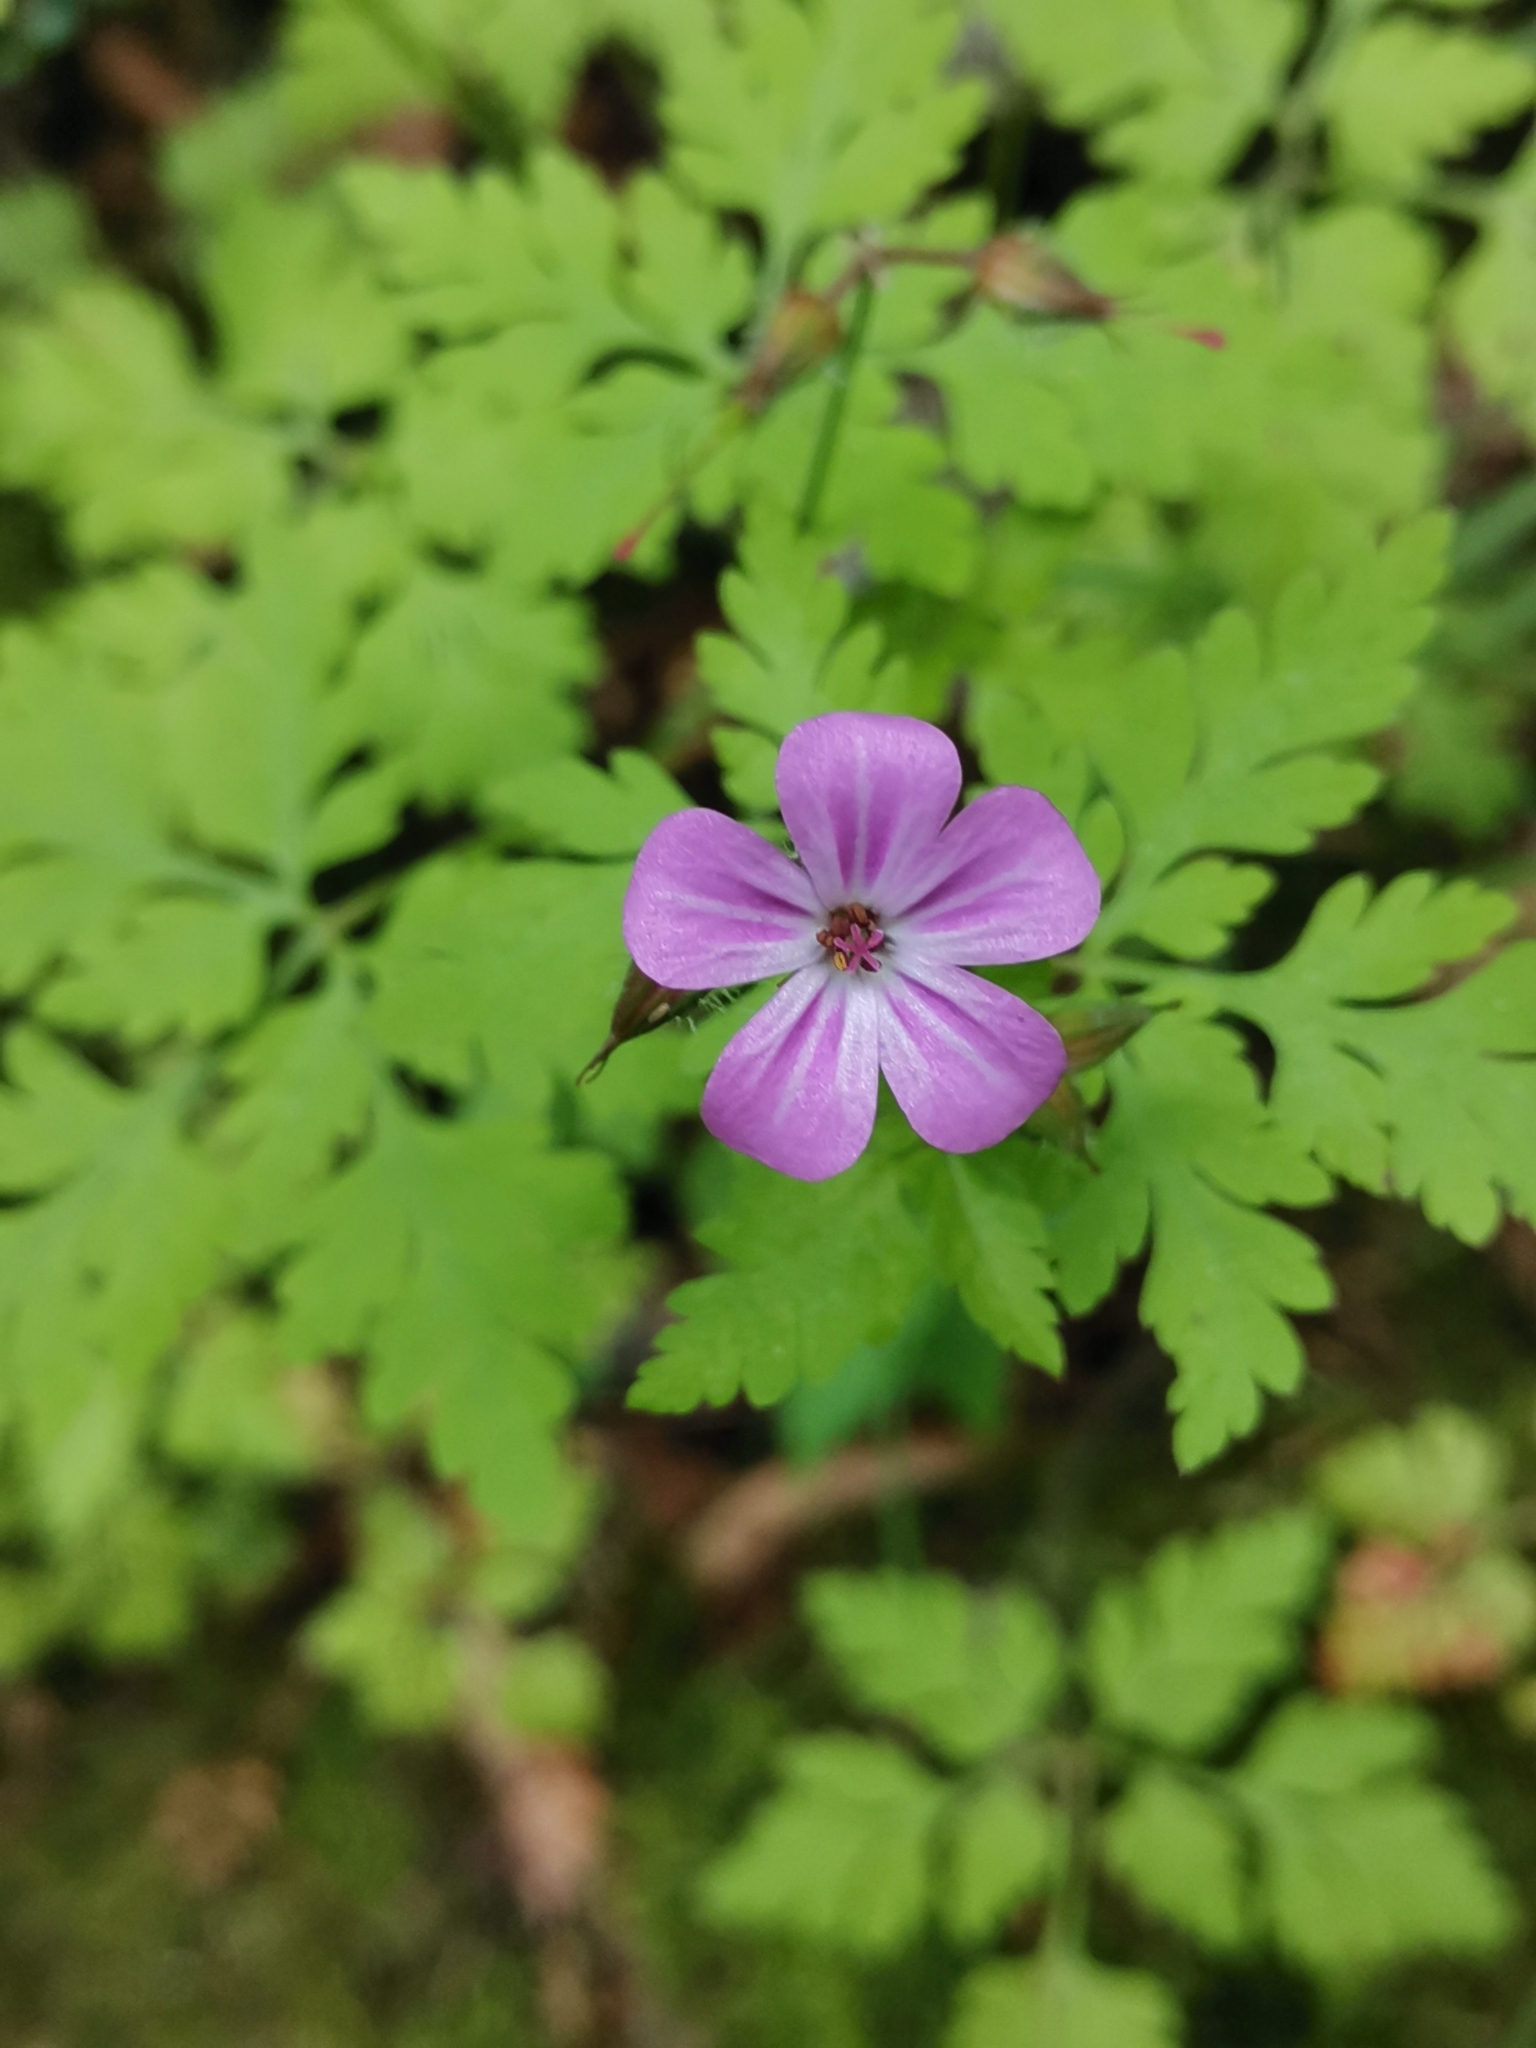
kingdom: Plantae
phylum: Tracheophyta
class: Magnoliopsida
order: Geraniales
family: Geraniaceae
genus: Geranium
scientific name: Geranium robertianum
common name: Herb-robert
